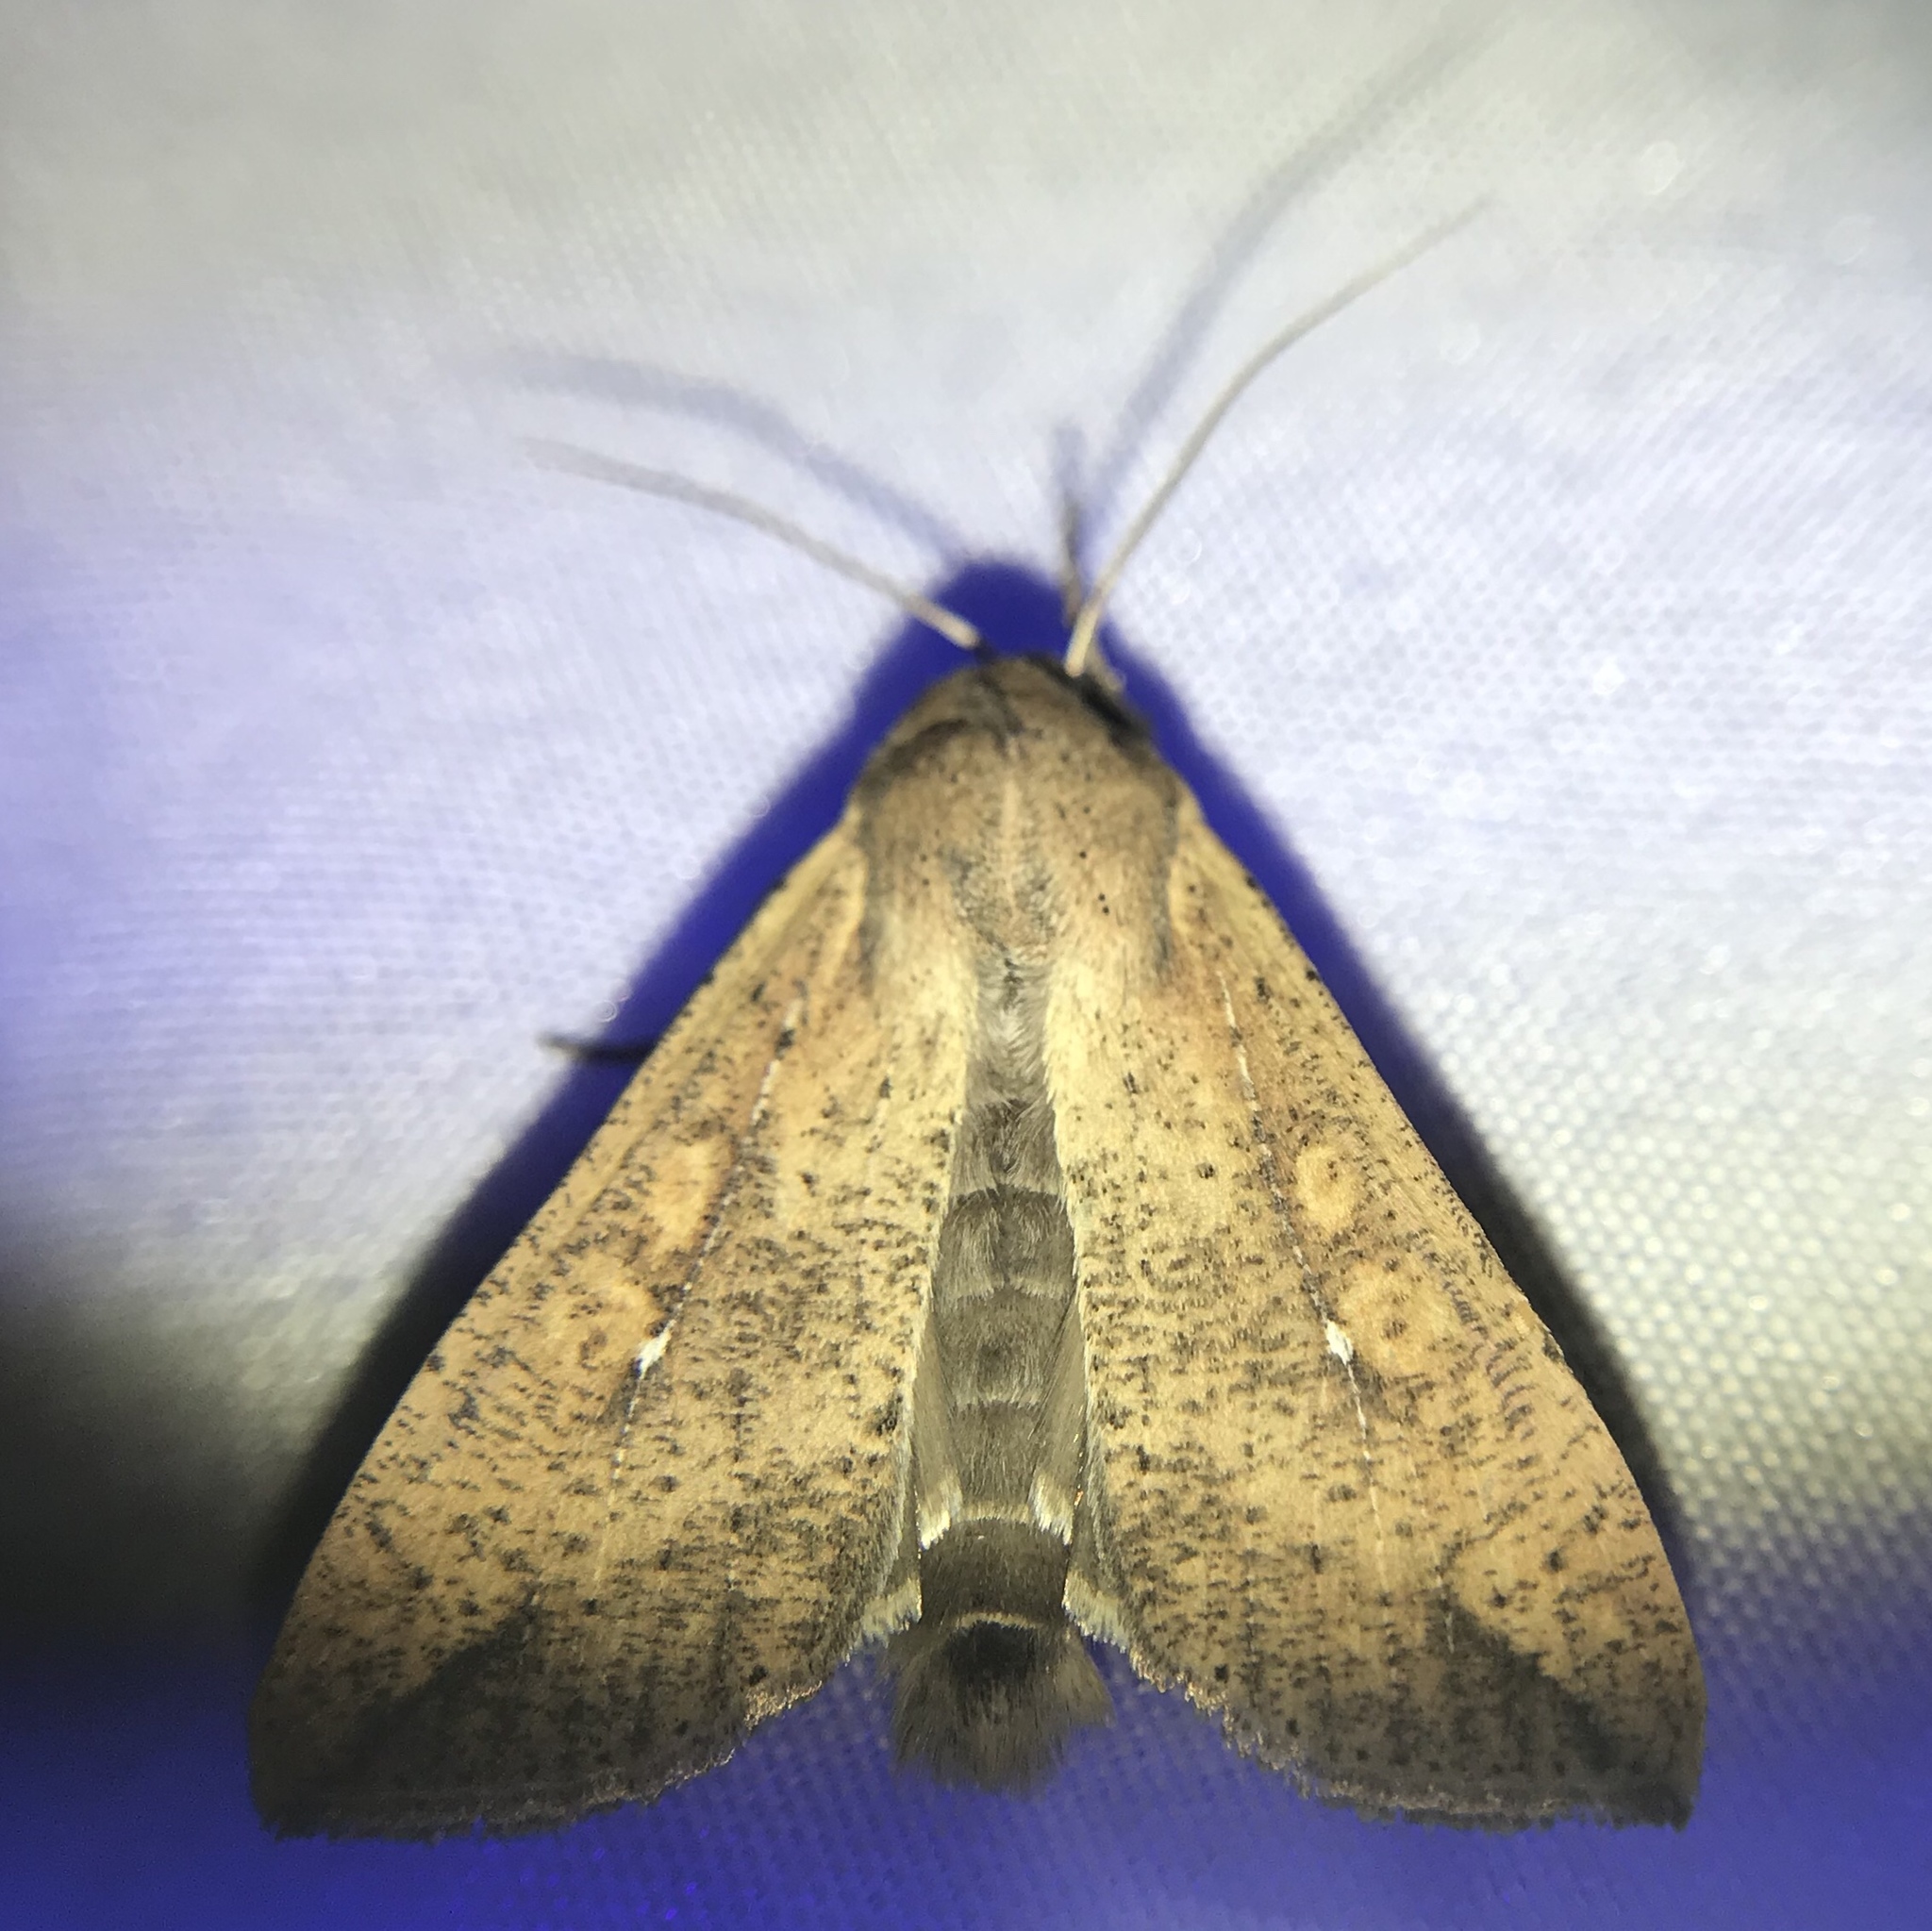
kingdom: Animalia
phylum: Arthropoda
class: Insecta
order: Lepidoptera
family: Noctuidae
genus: Mythimna
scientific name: Mythimna unipuncta
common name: White-speck
